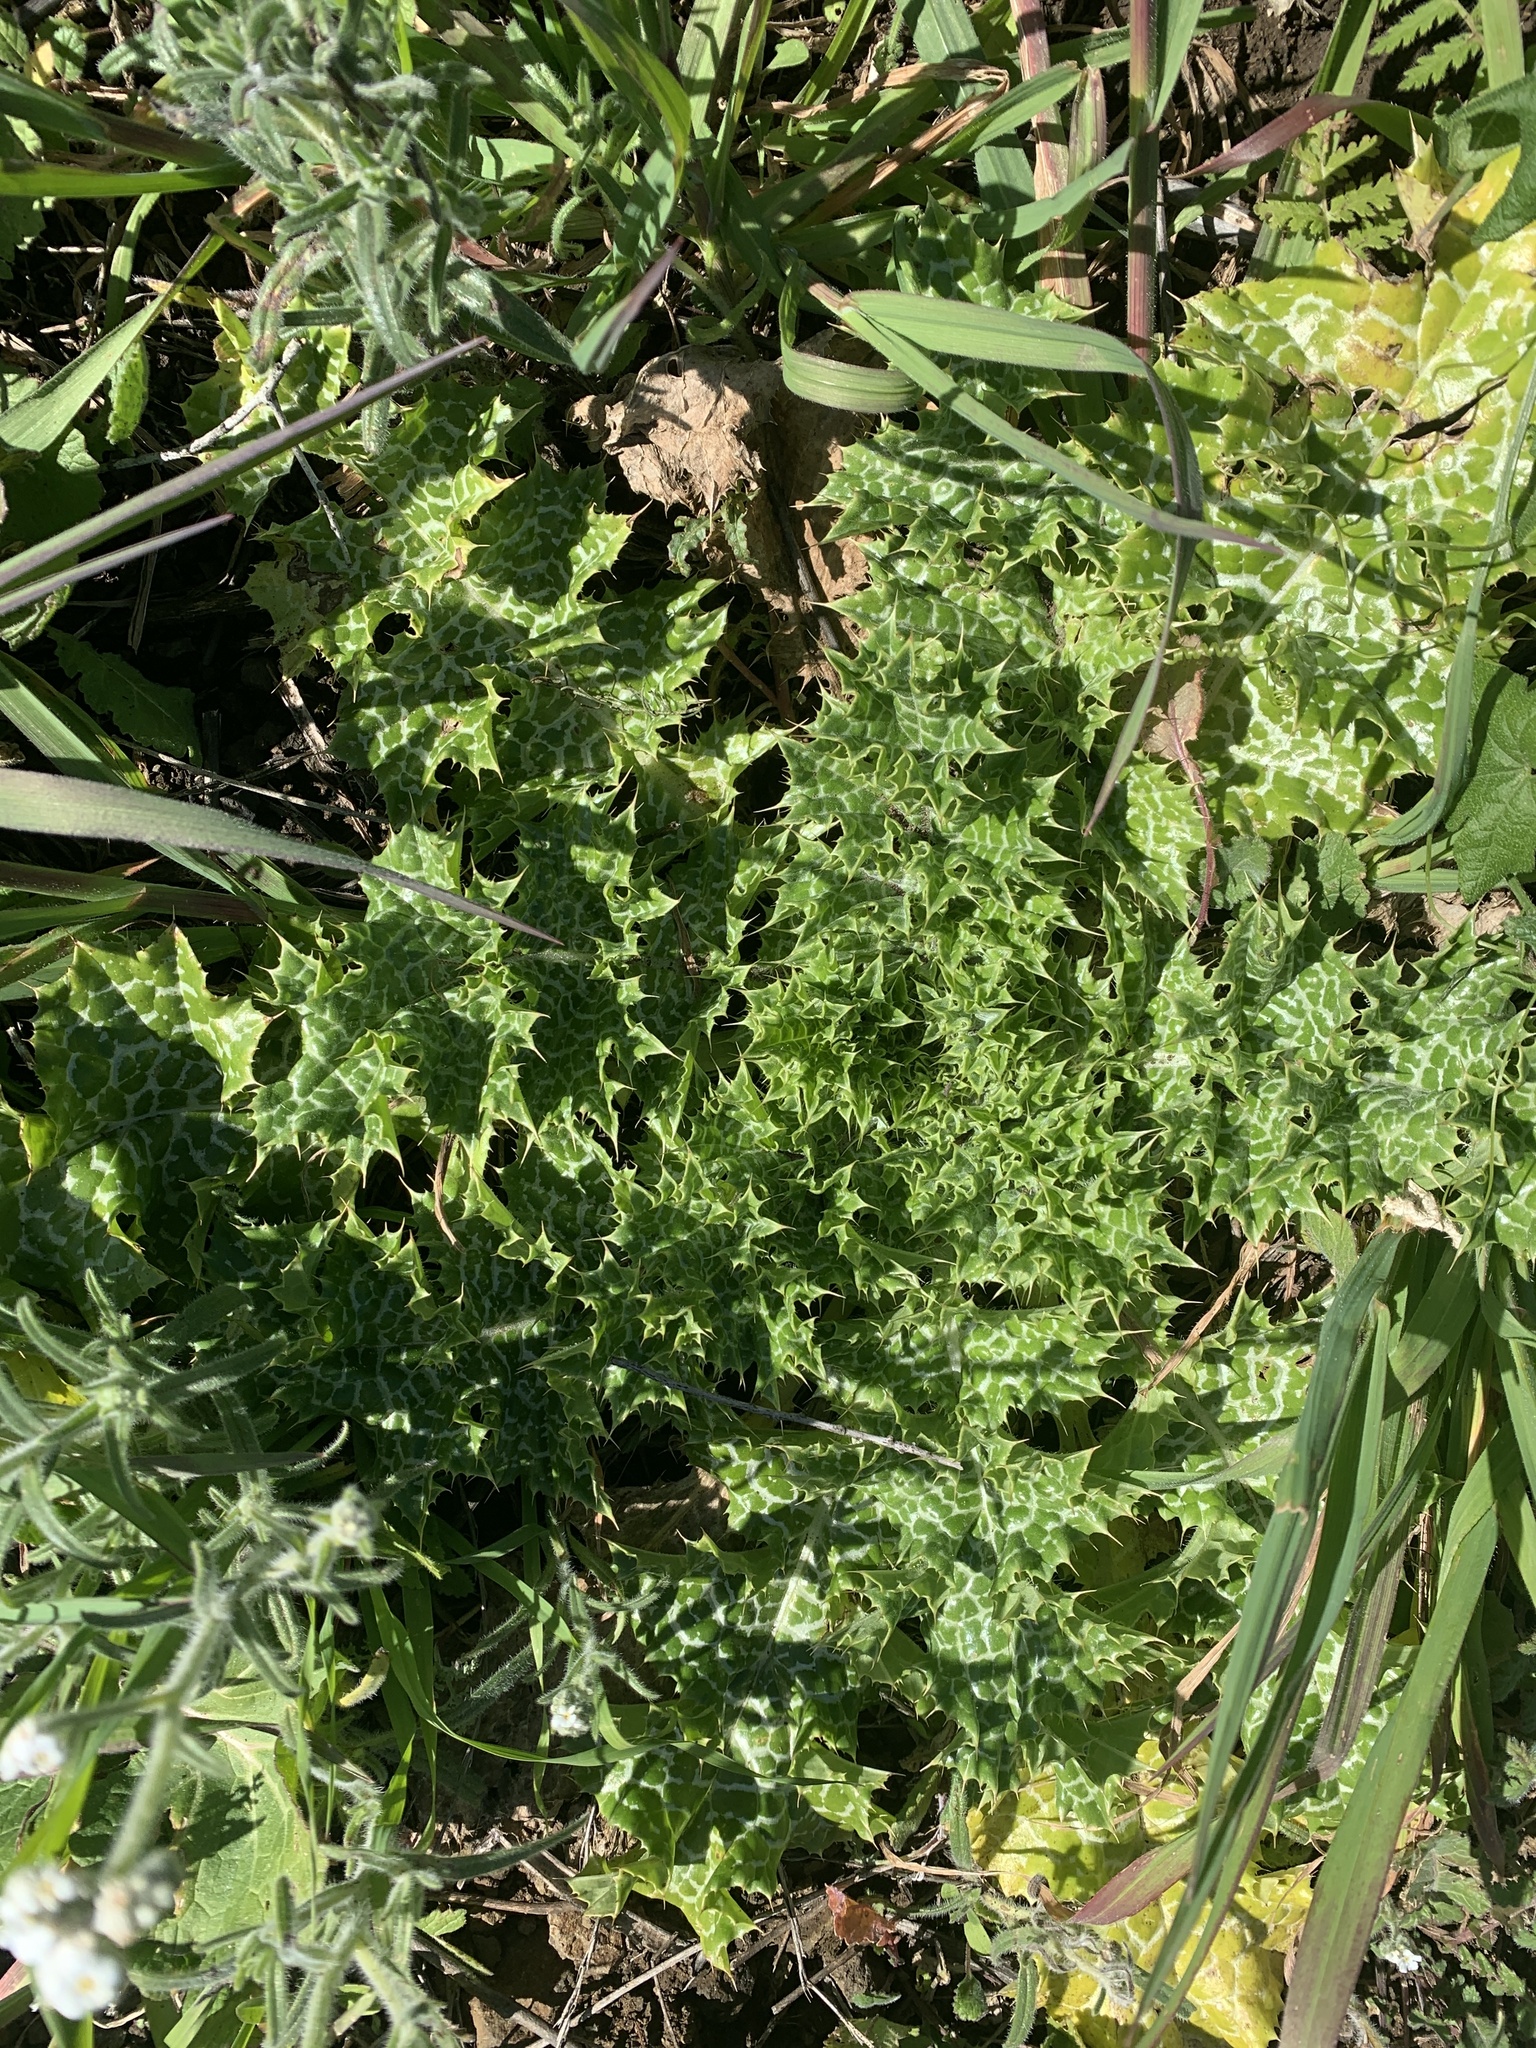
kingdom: Plantae
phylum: Tracheophyta
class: Magnoliopsida
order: Asterales
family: Asteraceae
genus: Silybum
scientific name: Silybum marianum
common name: Milk thistle
